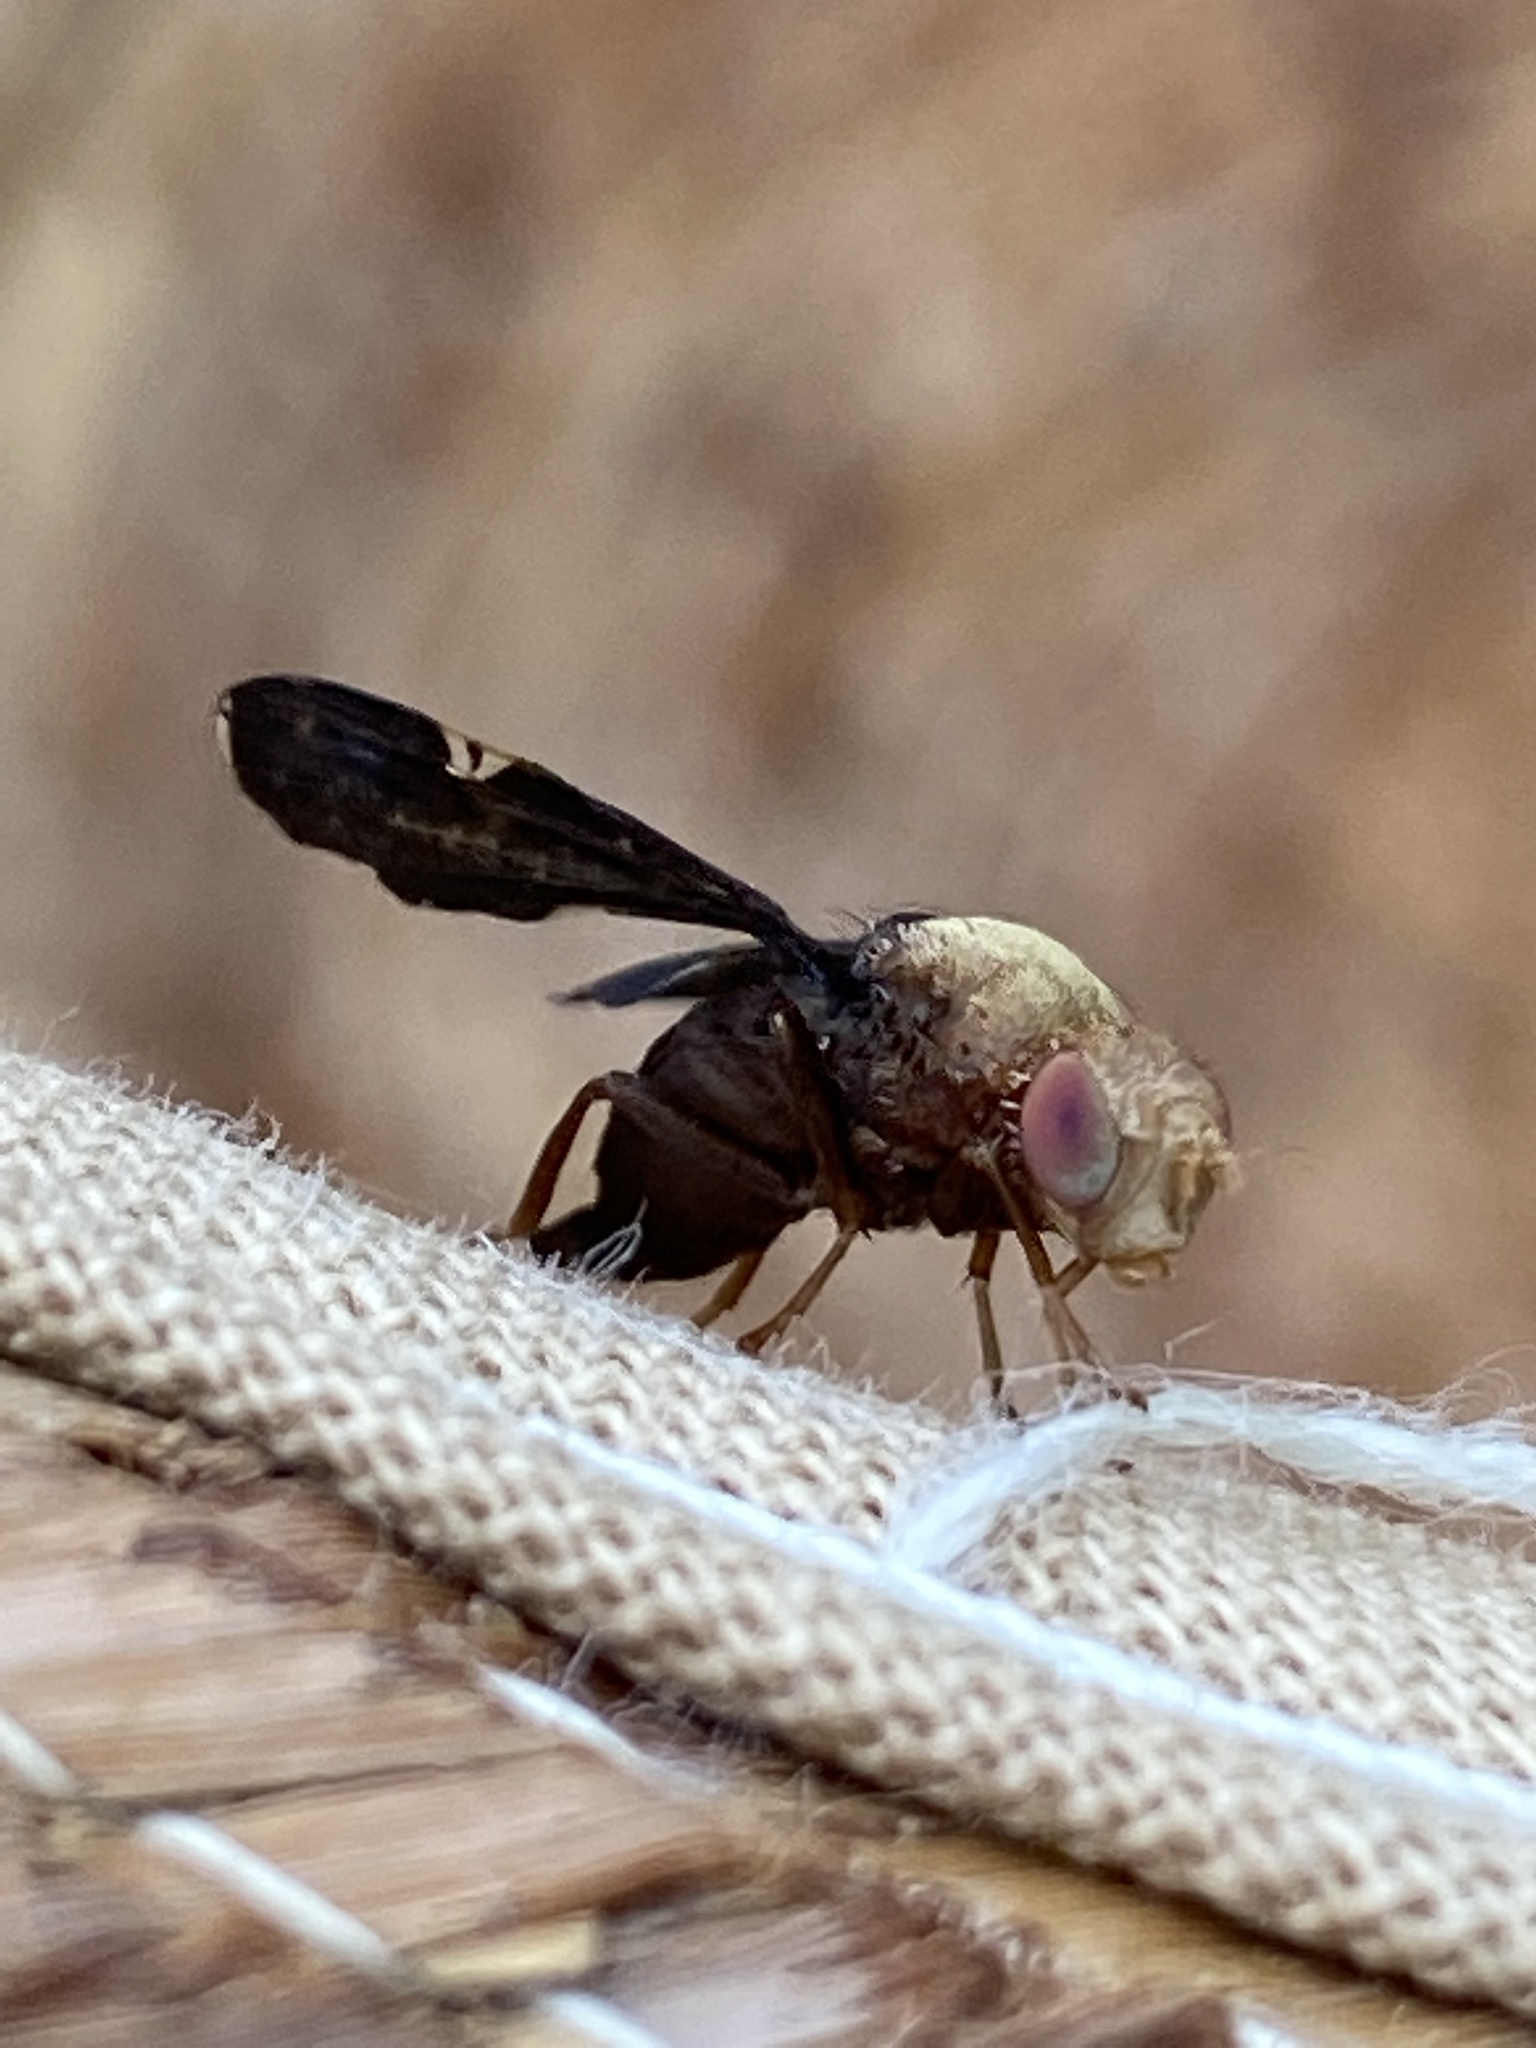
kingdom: Animalia
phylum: Arthropoda
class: Insecta
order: Diptera
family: Tephritidae
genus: Eurosta
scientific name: Eurosta comma
